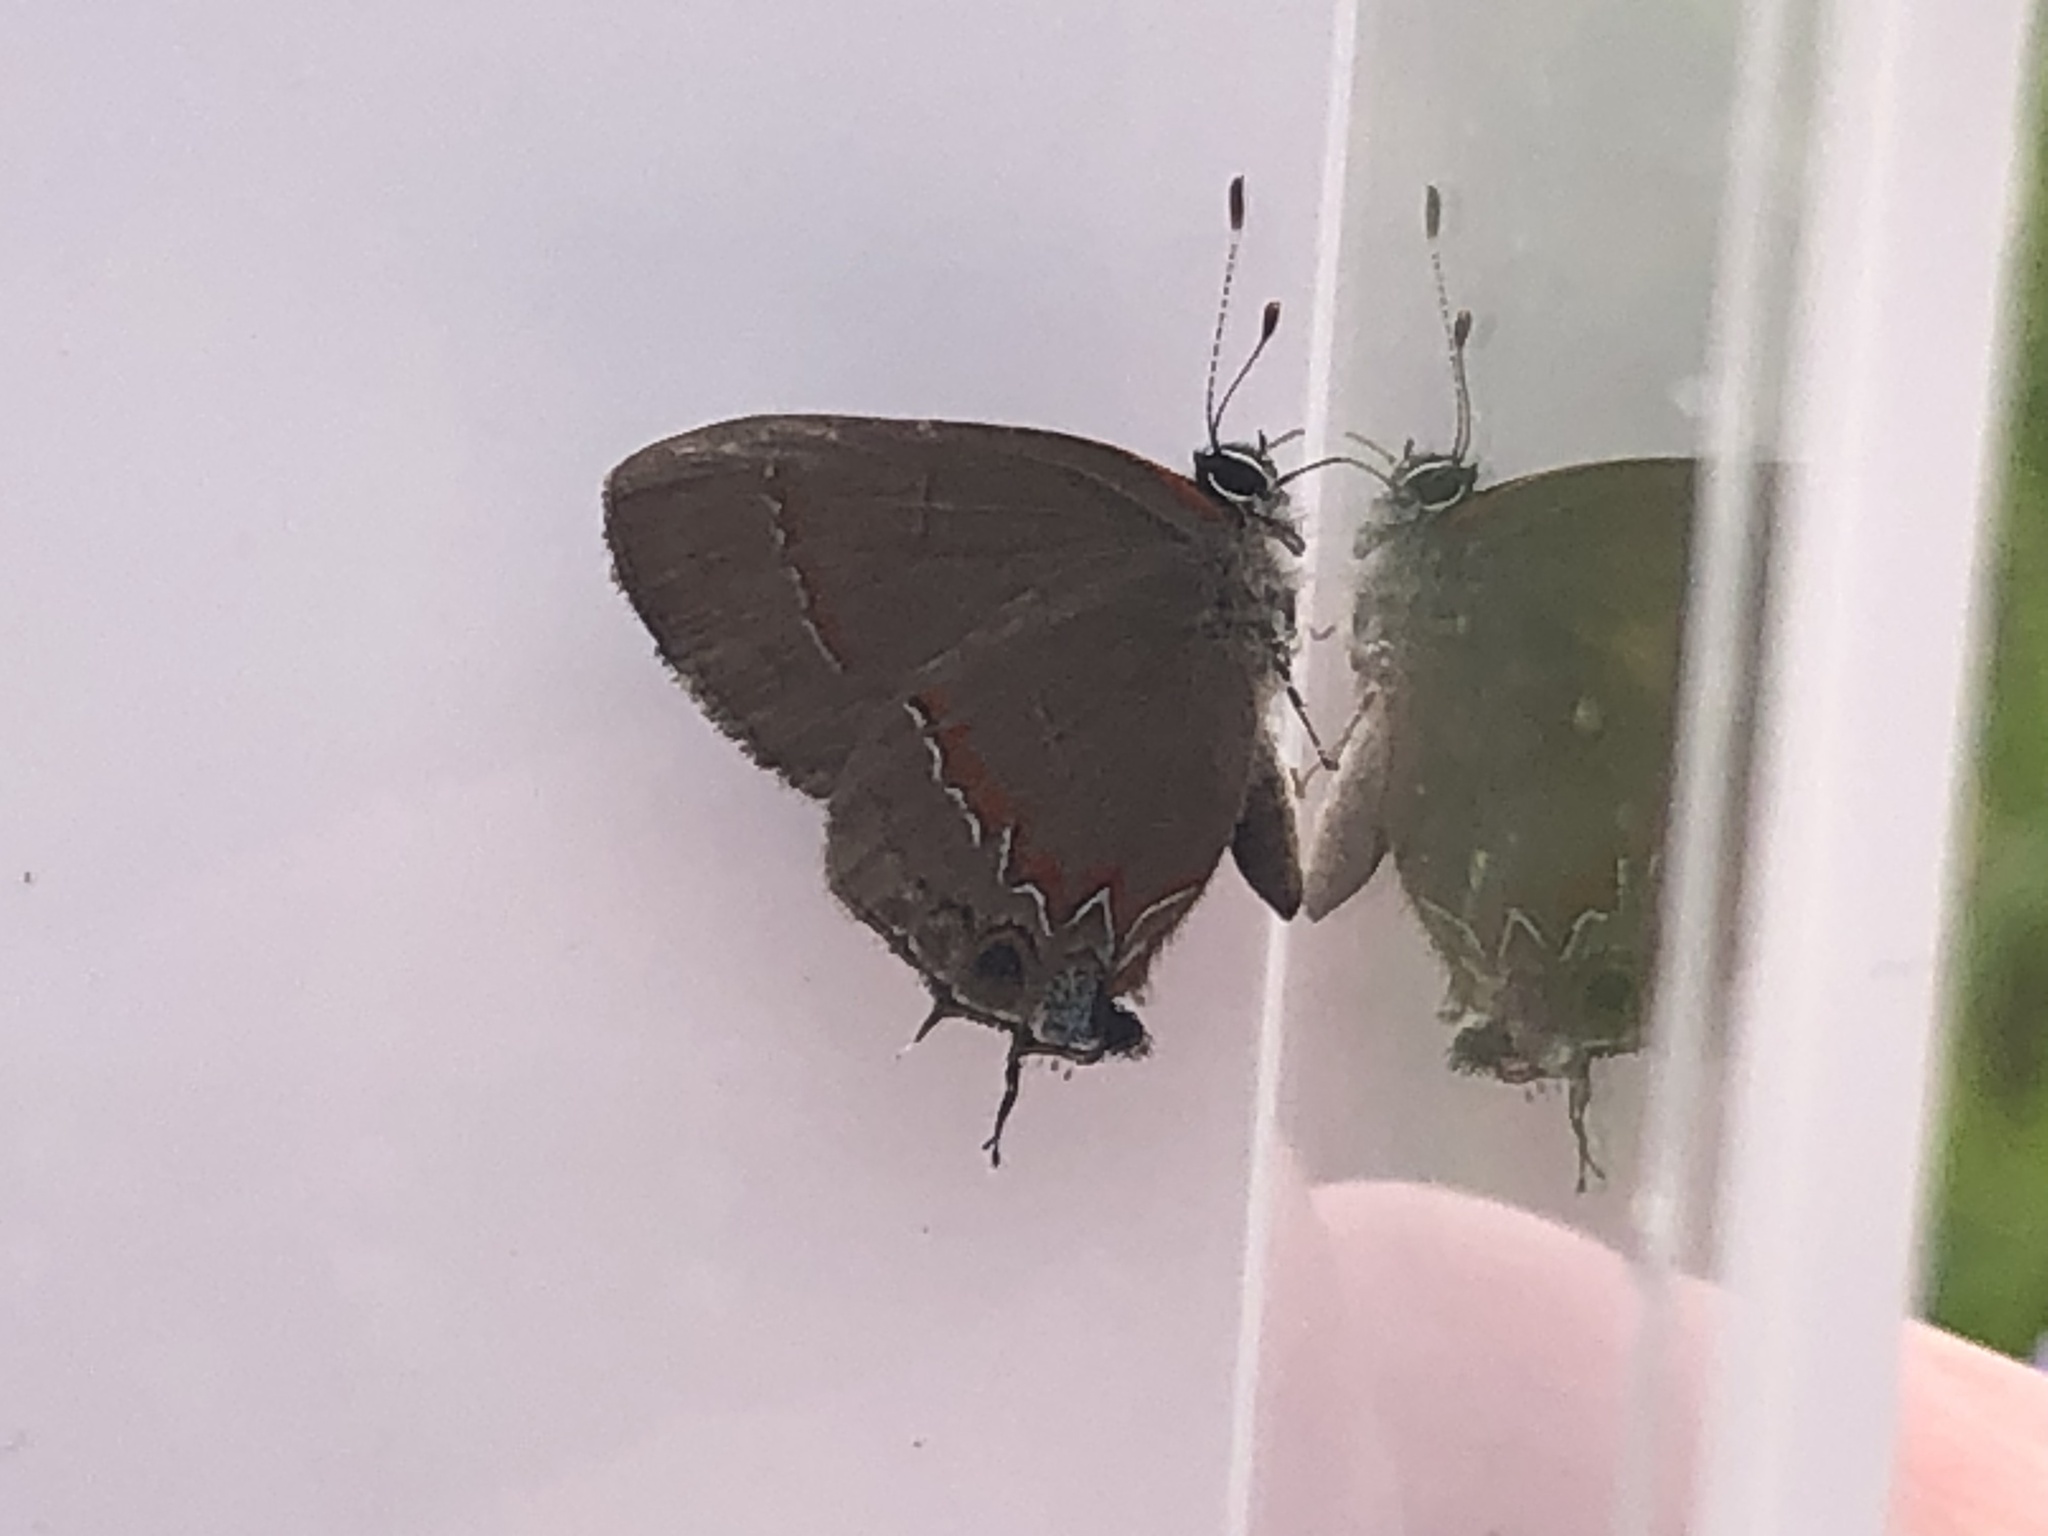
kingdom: Animalia
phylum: Arthropoda
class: Insecta
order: Lepidoptera
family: Lycaenidae
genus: Calycopis
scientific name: Calycopis cecrops
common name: Red-banded hairstreak
